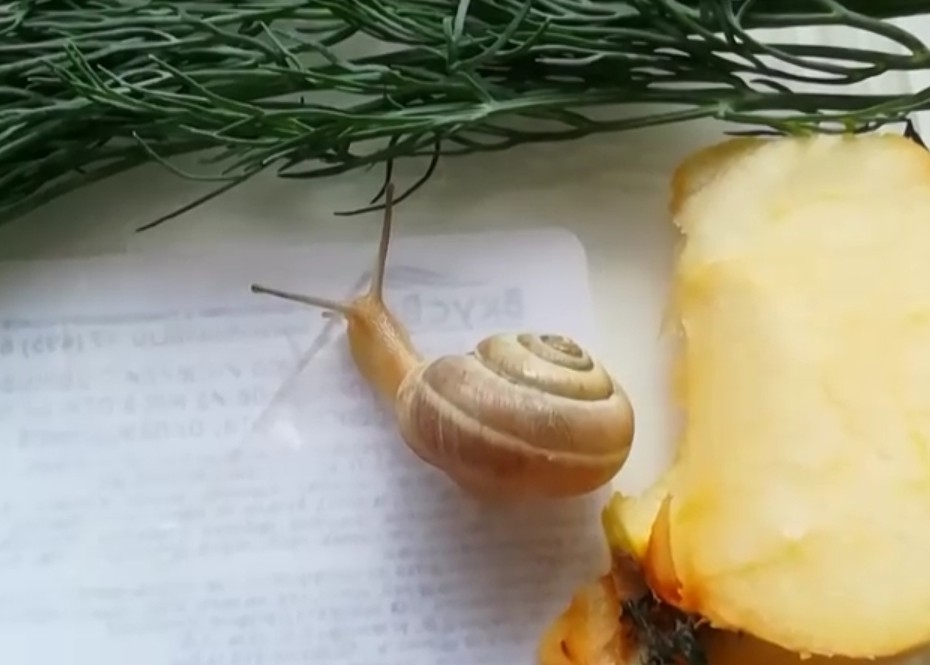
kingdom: Animalia
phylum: Mollusca
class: Gastropoda
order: Stylommatophora
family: Hygromiidae
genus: Harmozica
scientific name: Harmozica ravergiensis
